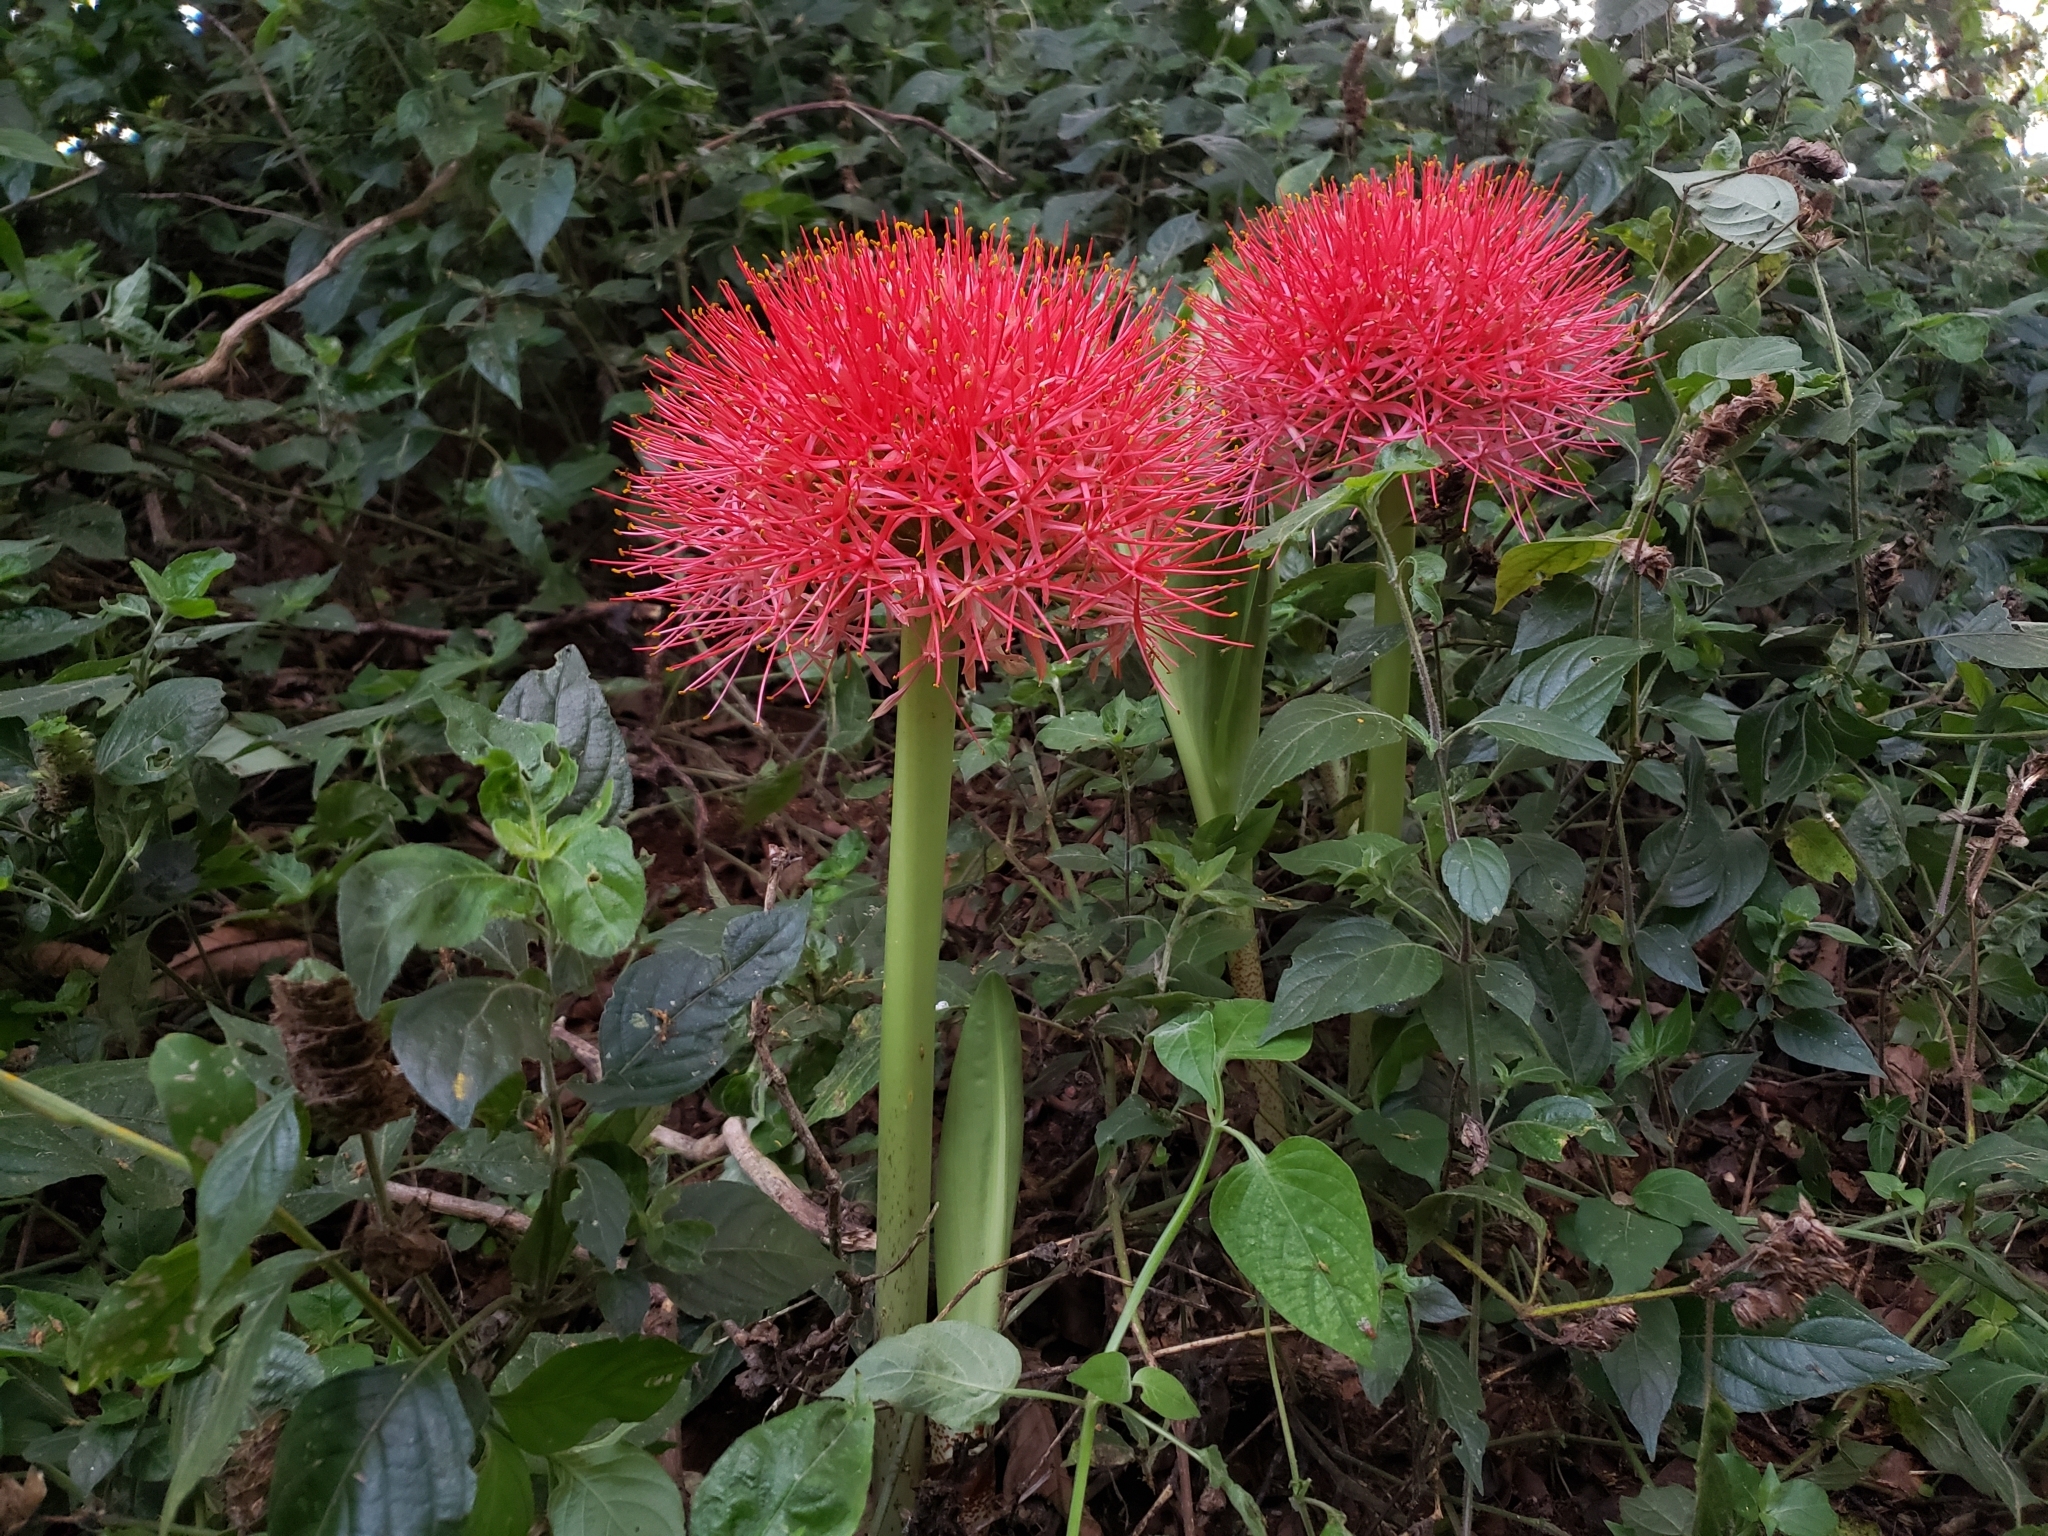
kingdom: Plantae
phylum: Tracheophyta
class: Liliopsida
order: Asparagales
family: Amaryllidaceae
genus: Scadoxus
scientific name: Scadoxus multiflorus
